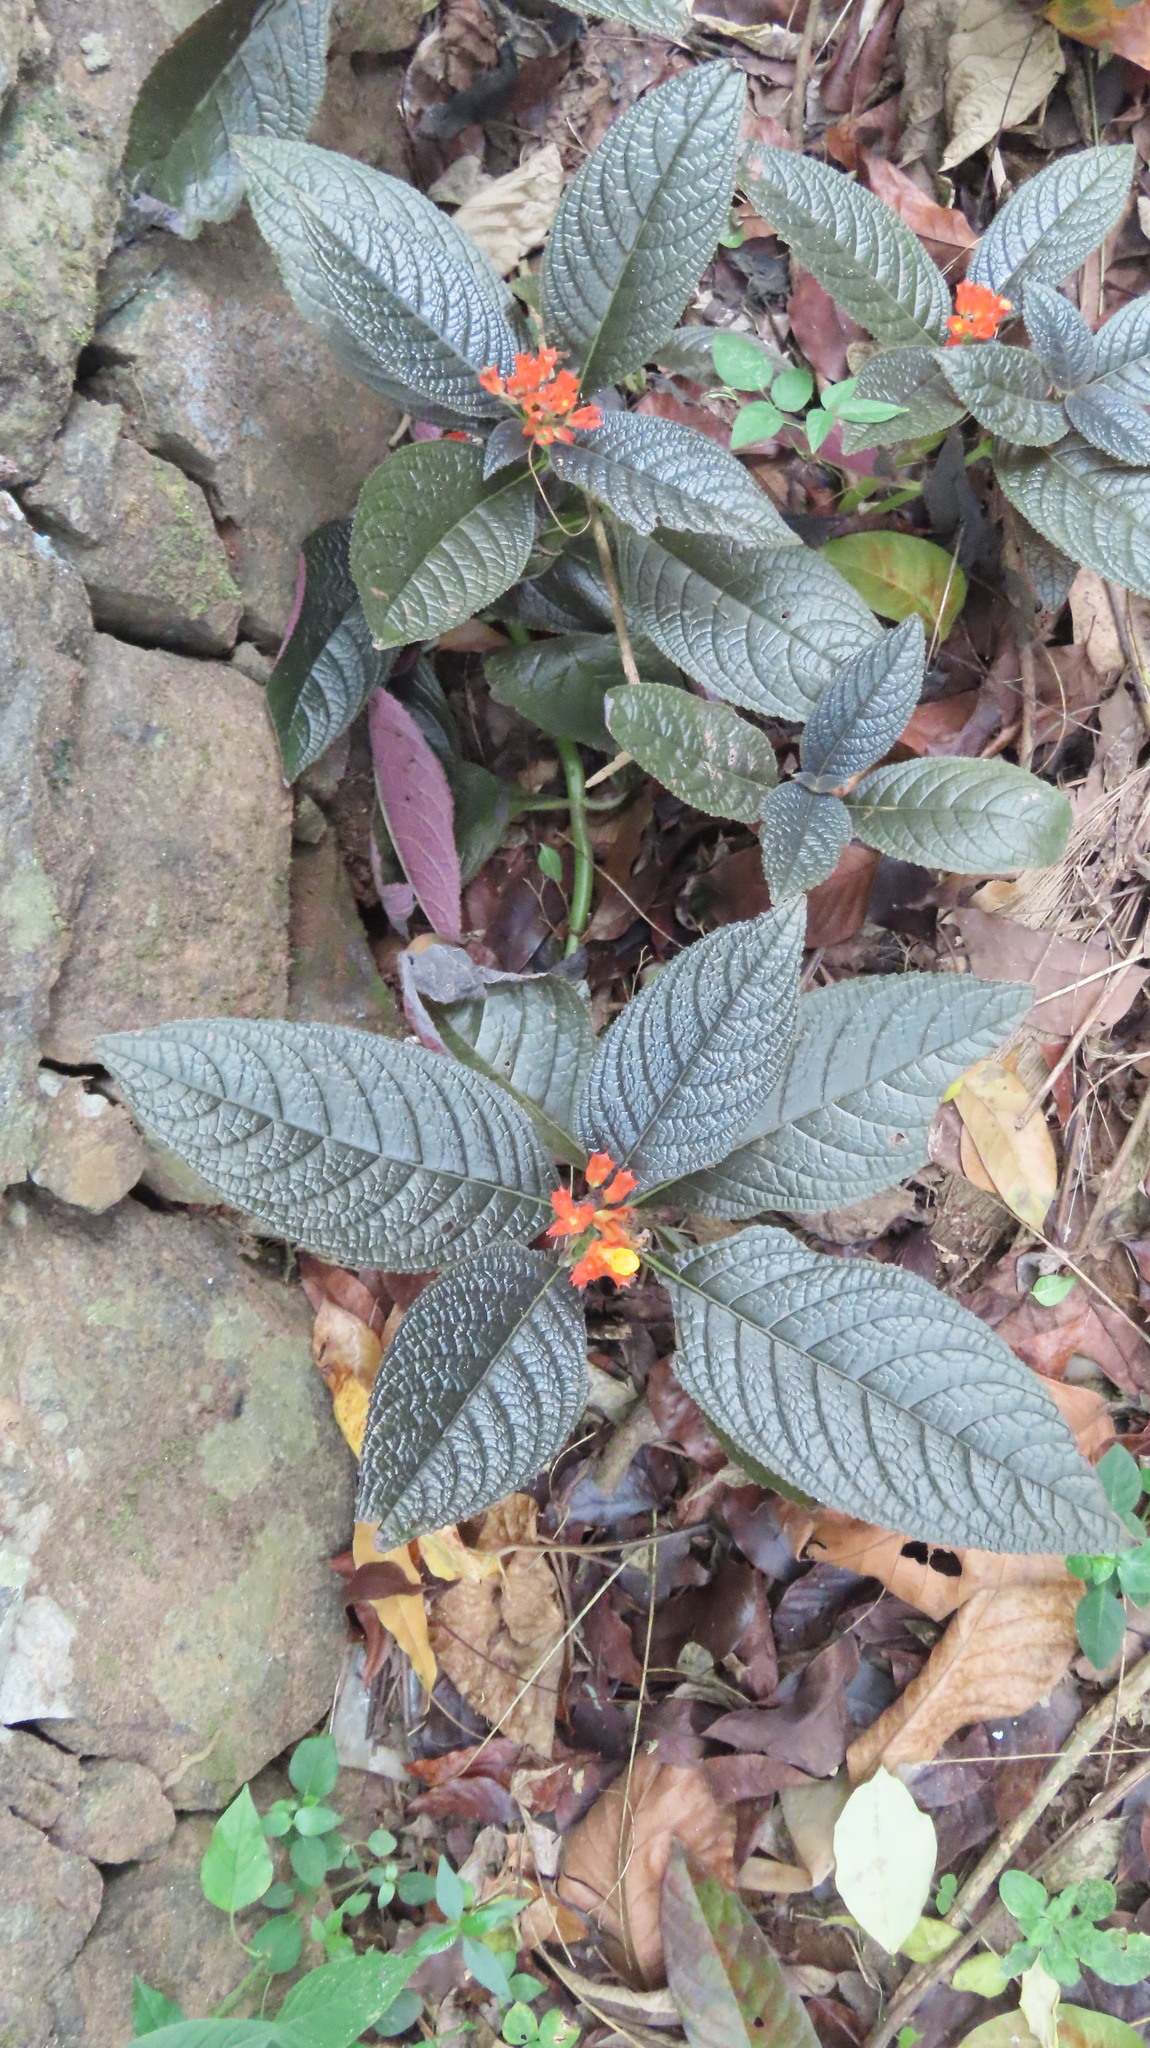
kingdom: Plantae
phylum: Tracheophyta
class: Magnoliopsida
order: Lamiales
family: Gesneriaceae
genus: Chrysothemis
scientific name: Chrysothemis pulchella
